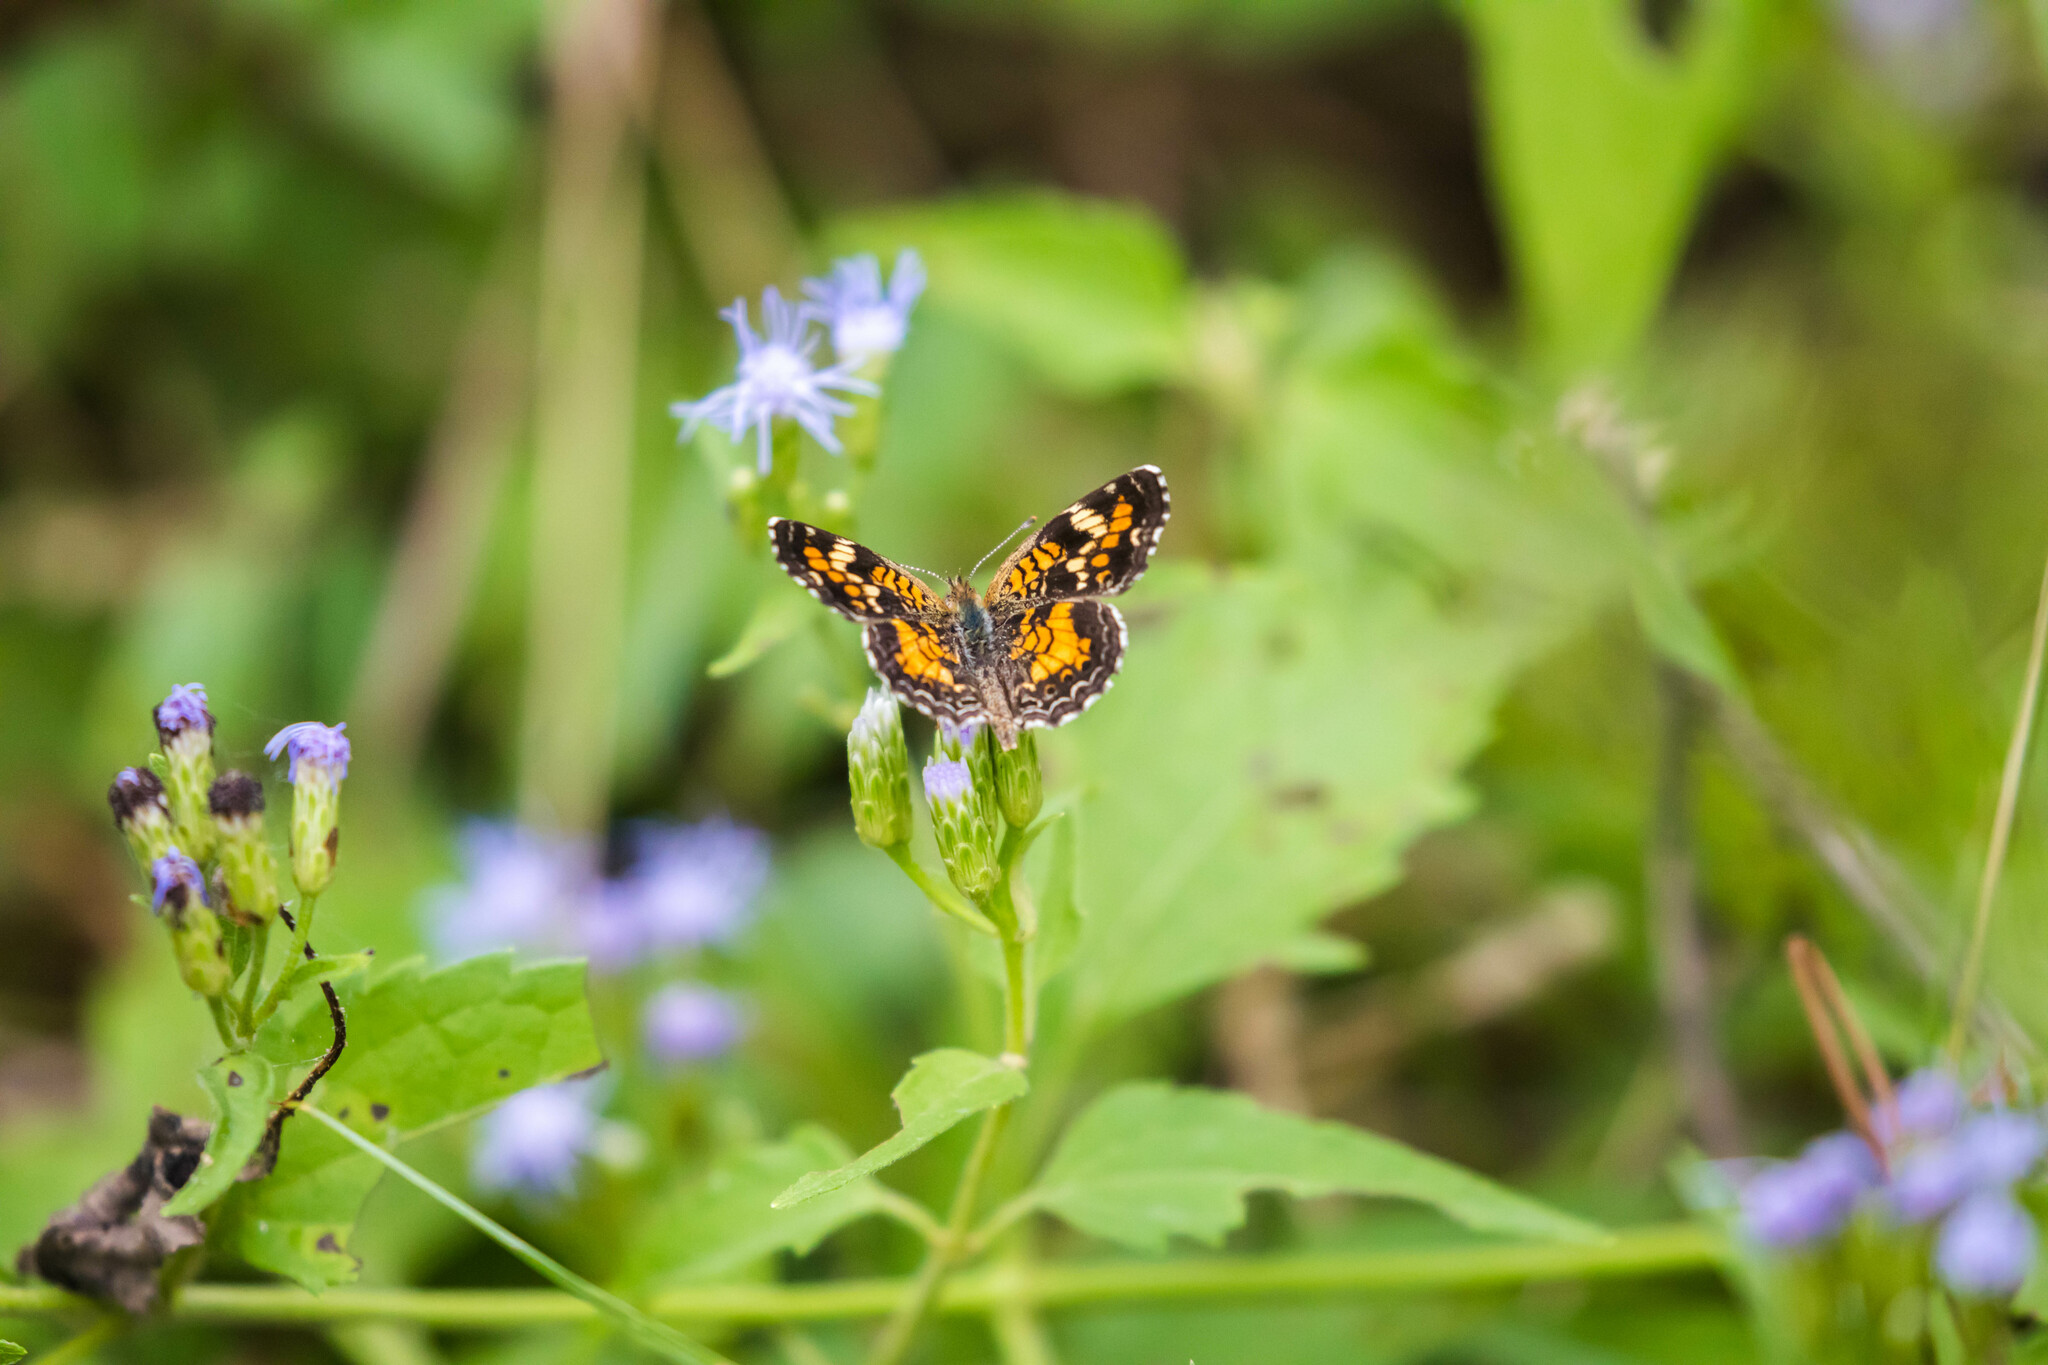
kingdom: Animalia
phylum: Arthropoda
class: Insecta
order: Lepidoptera
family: Nymphalidae
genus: Phyciodes
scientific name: Phyciodes phaon
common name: Phaon crescent
